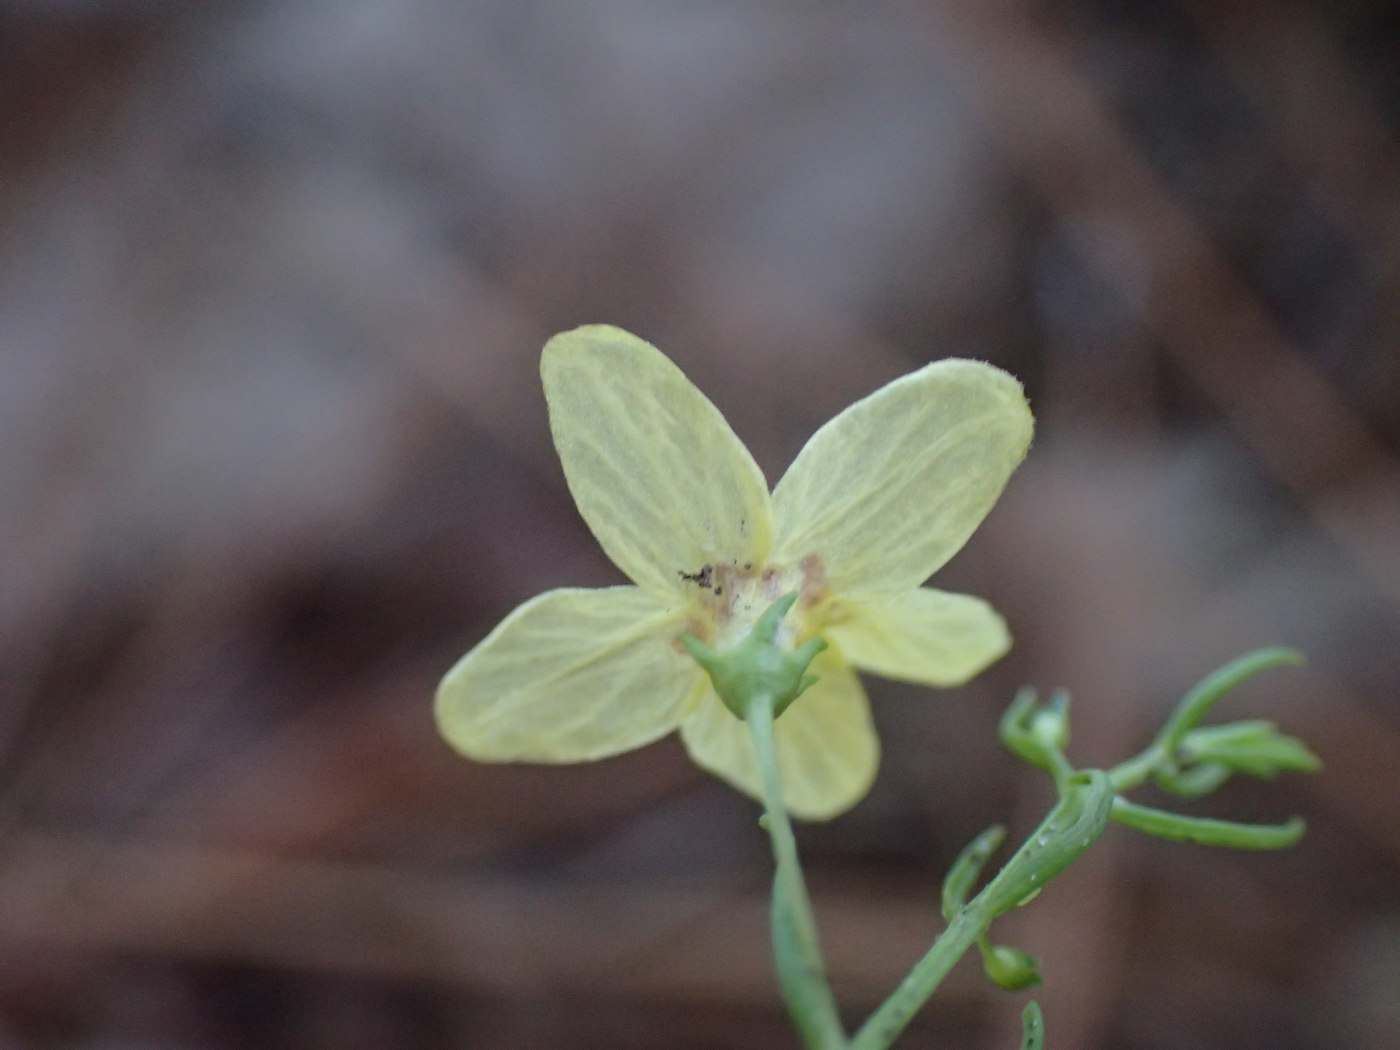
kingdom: Plantae
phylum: Tracheophyta
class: Magnoliopsida
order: Lamiales
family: Orobanchaceae
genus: Seymeria
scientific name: Seymeria cassioides
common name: Yaupon black-senna
